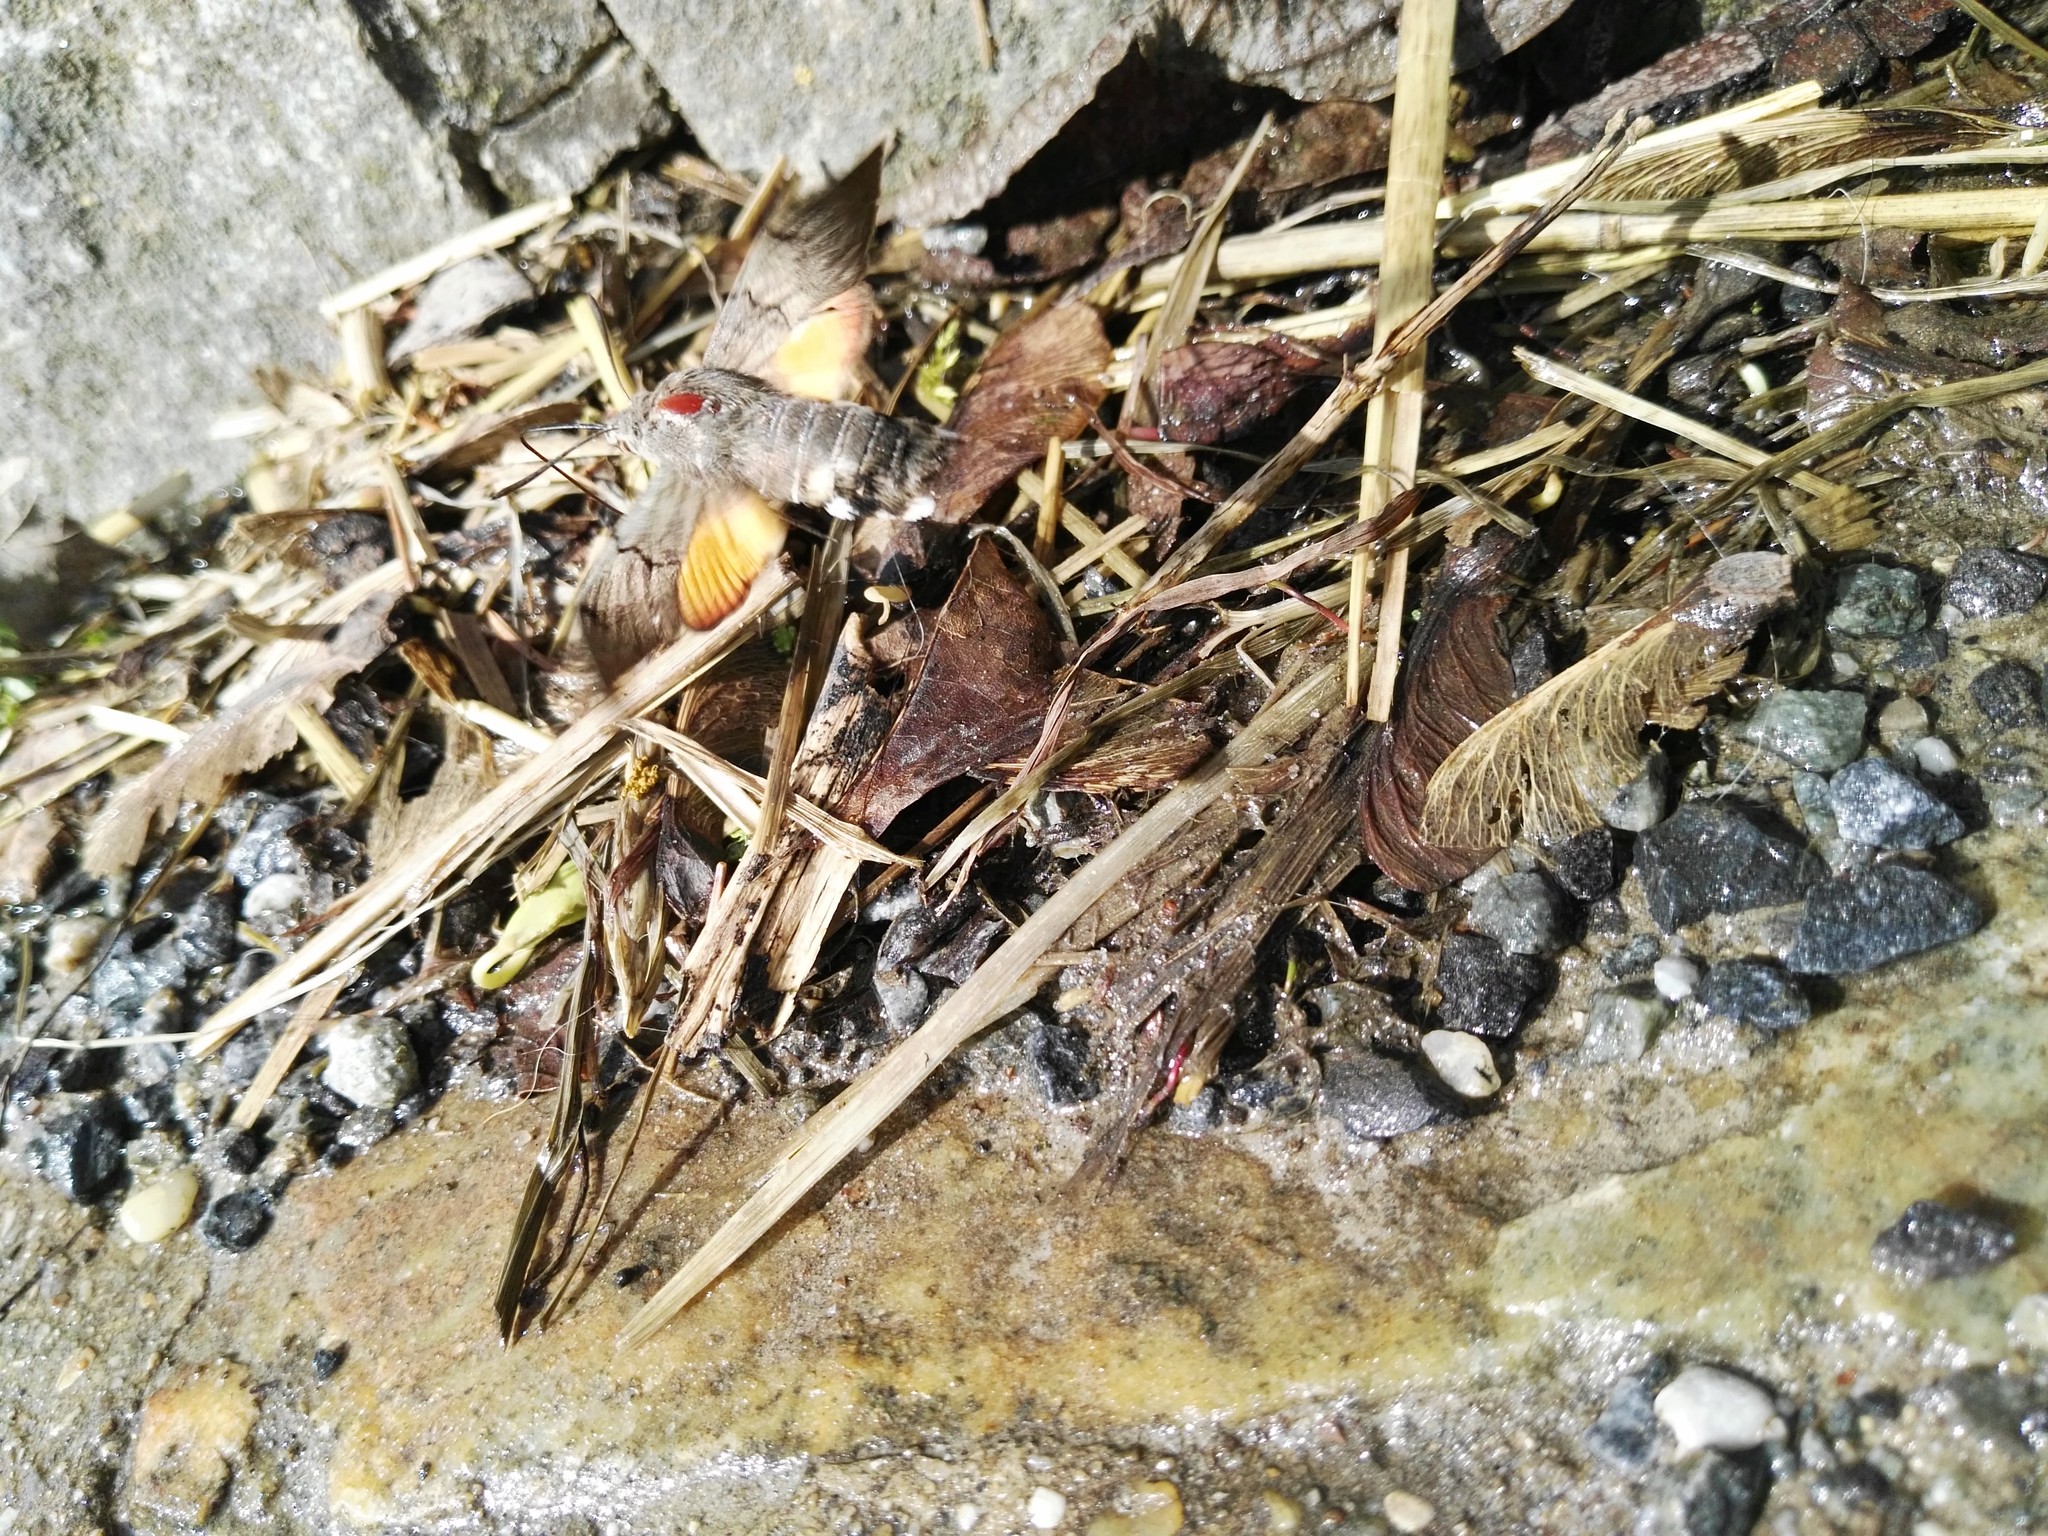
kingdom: Animalia
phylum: Arthropoda
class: Insecta
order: Lepidoptera
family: Sphingidae
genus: Macroglossum
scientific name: Macroglossum stellatarum
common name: Humming-bird hawk-moth
